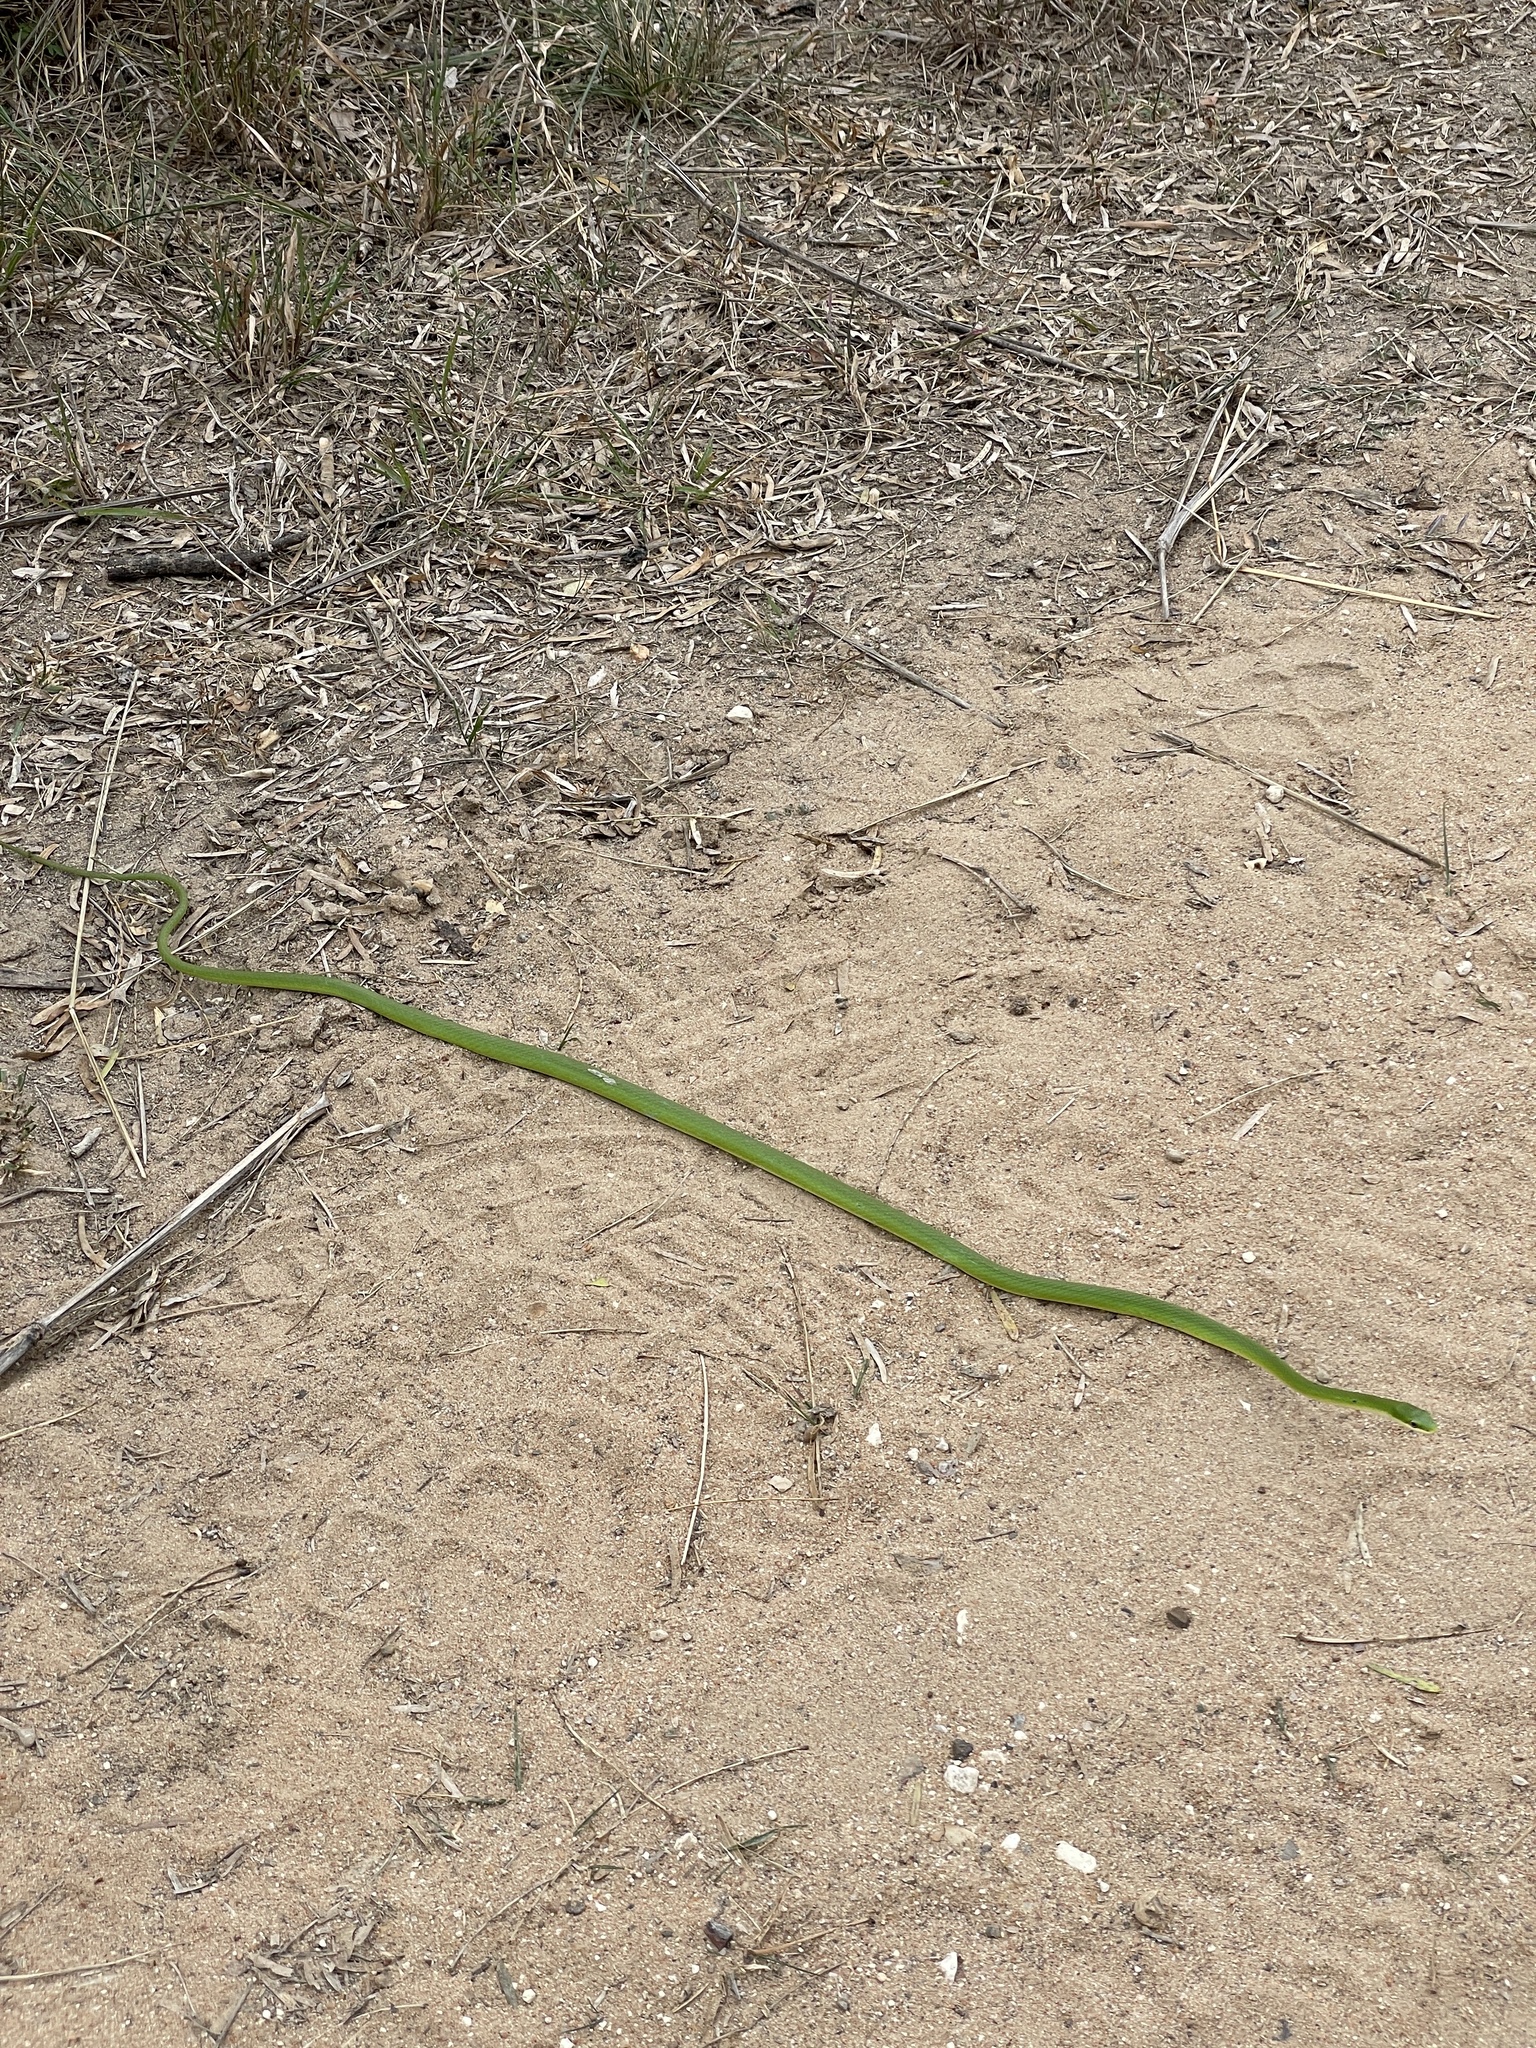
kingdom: Animalia
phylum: Chordata
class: Squamata
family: Colubridae
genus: Opheodrys
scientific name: Opheodrys aestivus
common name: Rough greensnake
